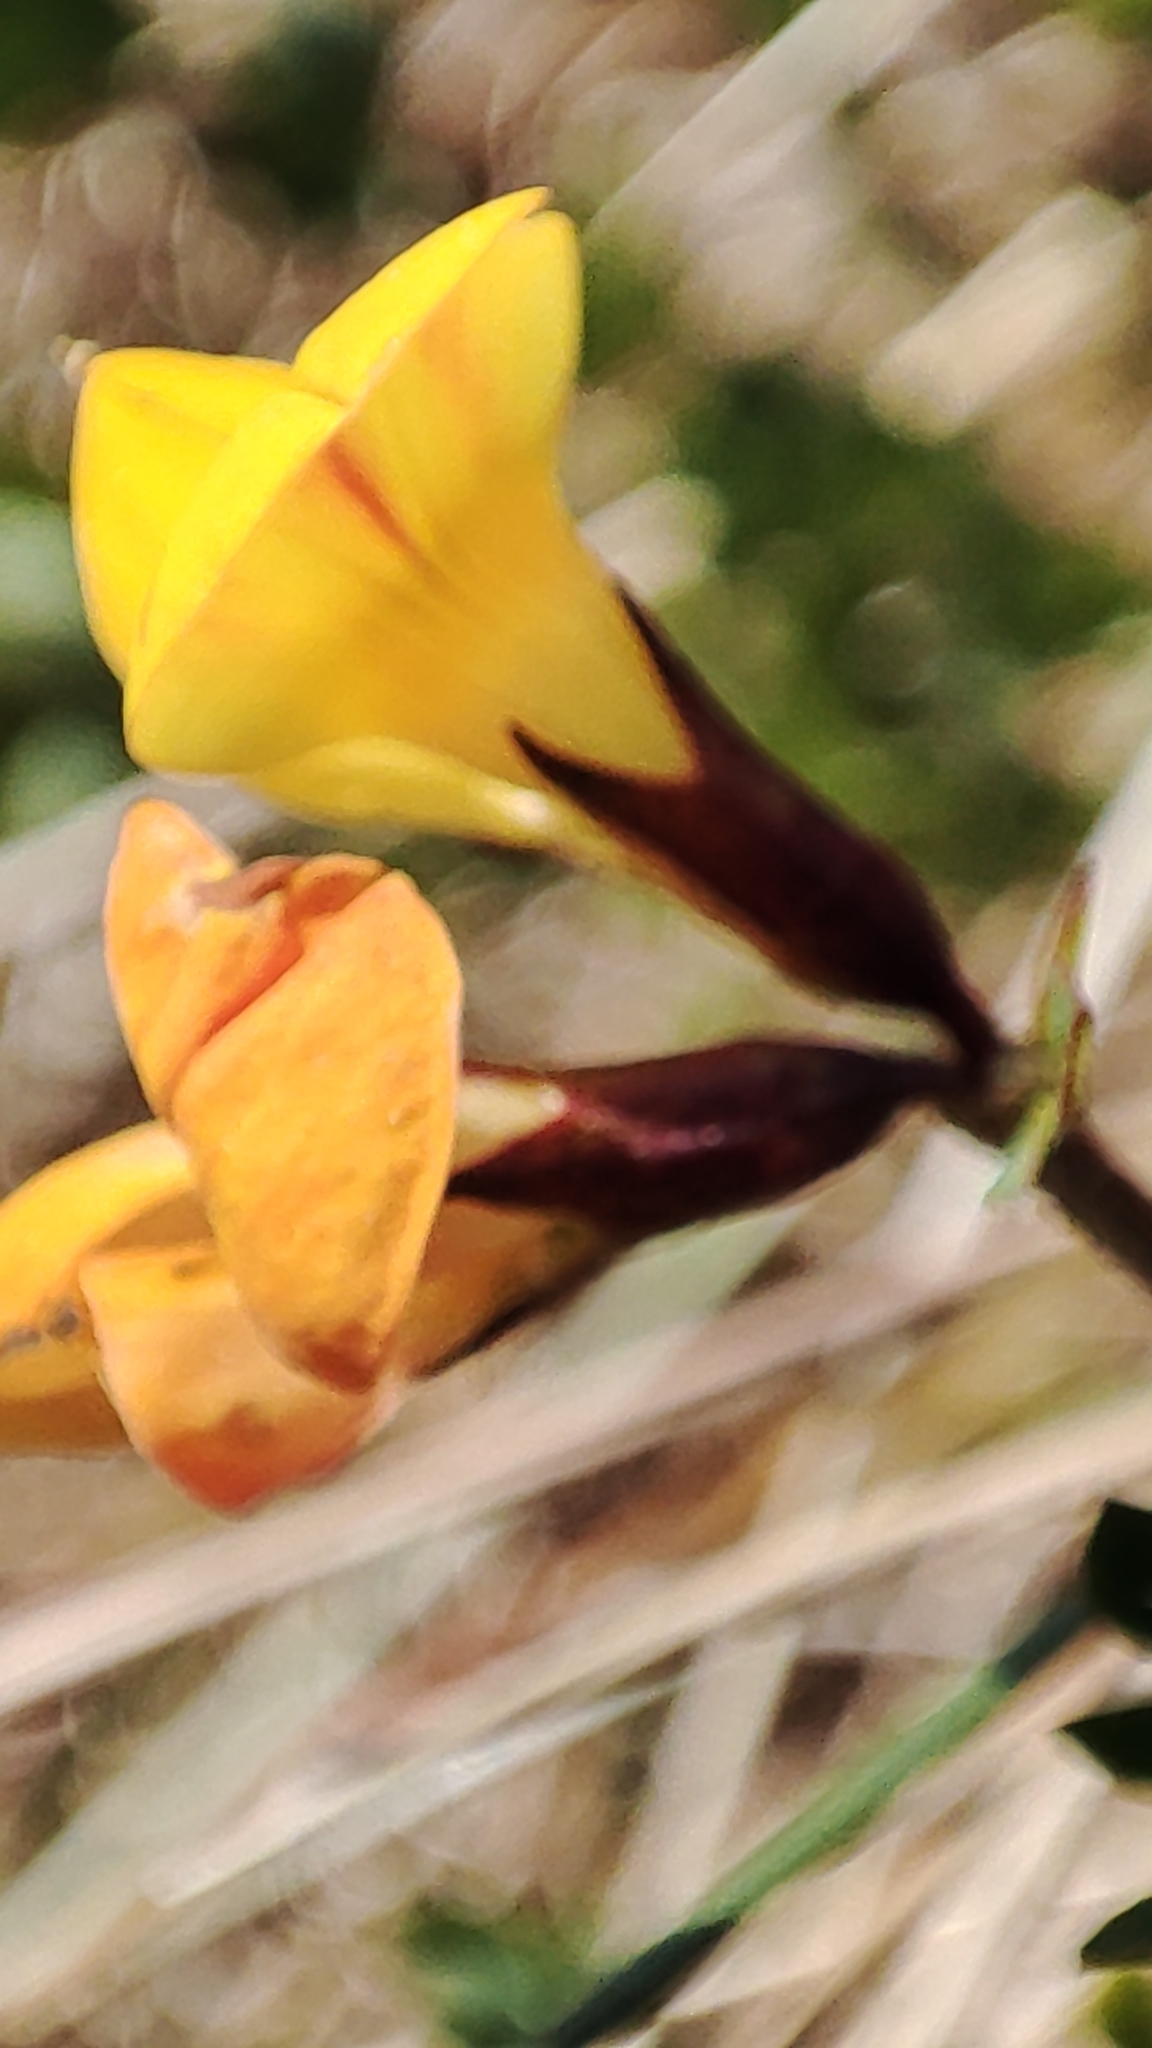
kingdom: Plantae
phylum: Tracheophyta
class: Magnoliopsida
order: Fabales
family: Fabaceae
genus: Lotus
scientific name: Lotus corniculatus
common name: Common bird's-foot-trefoil
